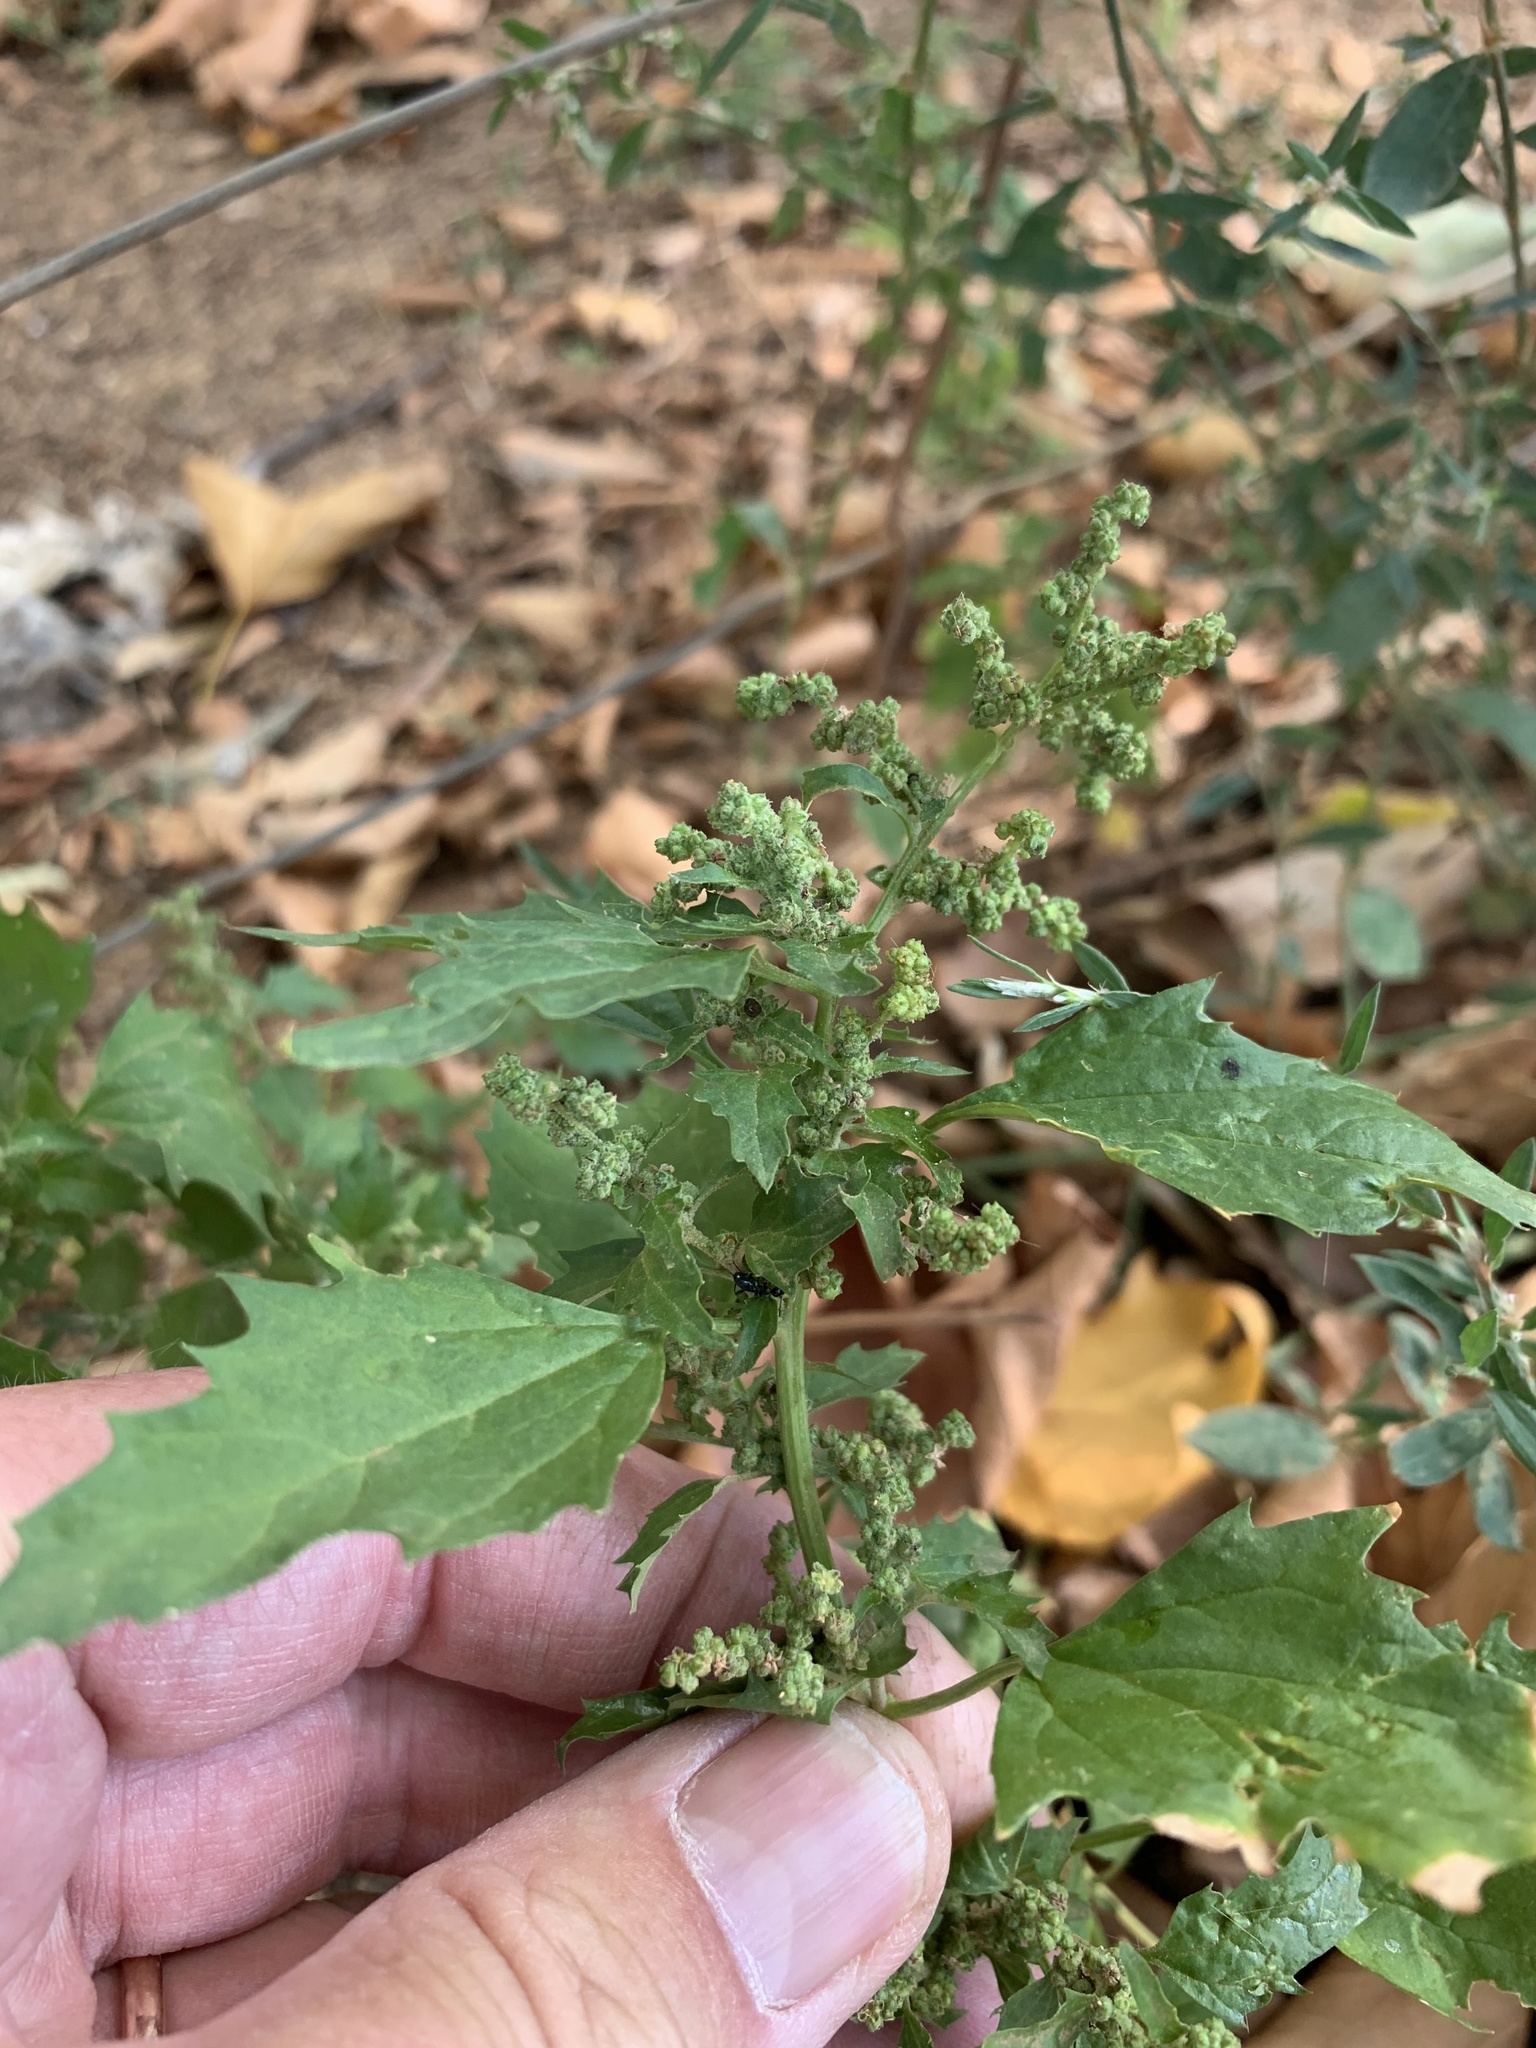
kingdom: Plantae
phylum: Tracheophyta
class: Magnoliopsida
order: Caryophyllales
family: Amaranthaceae
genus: Chenopodiastrum
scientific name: Chenopodiastrum murale
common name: Sowbane
